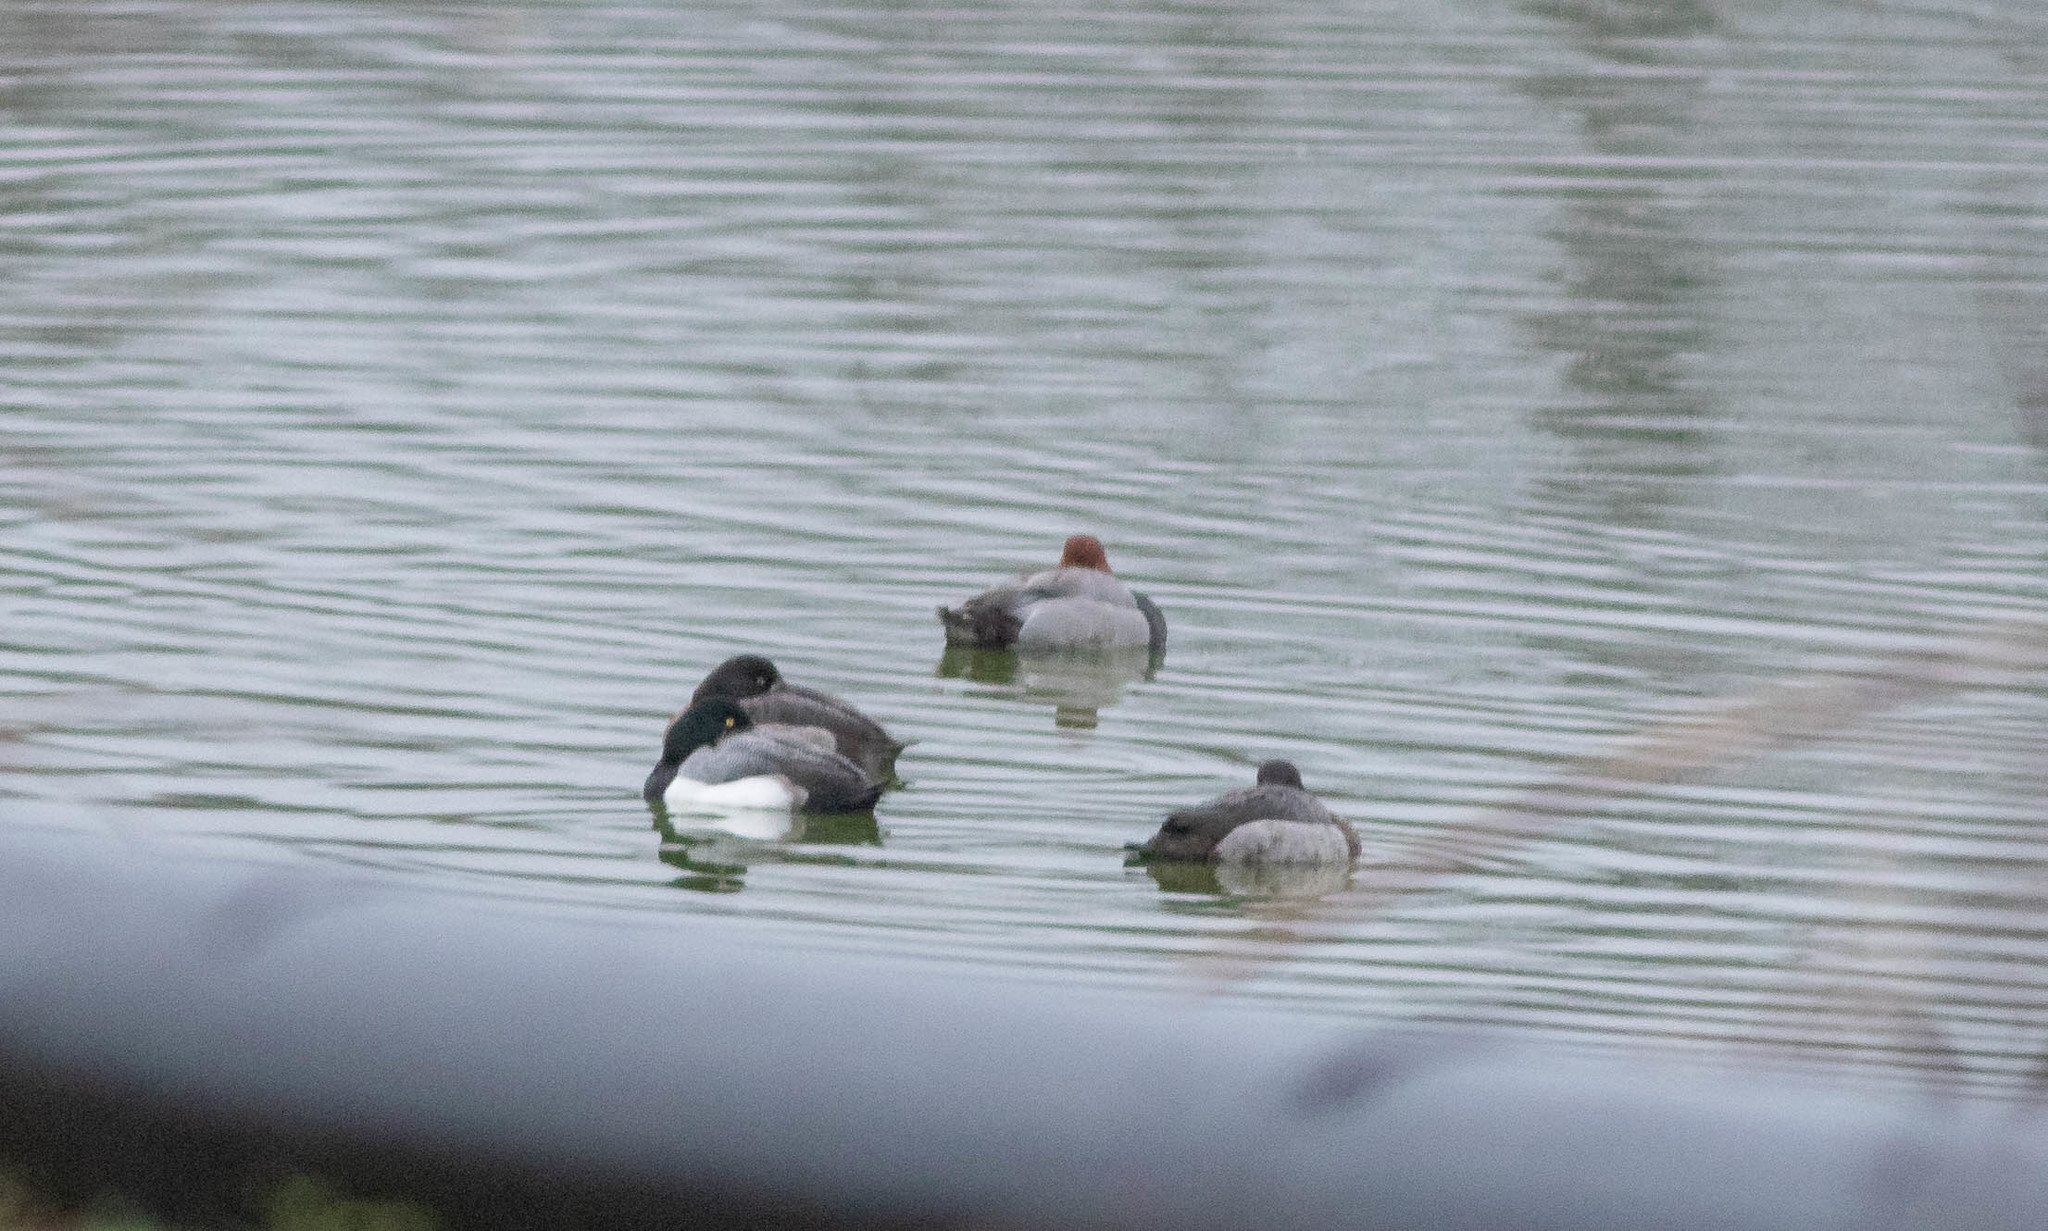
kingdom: Animalia
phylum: Chordata
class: Aves
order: Anseriformes
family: Anatidae
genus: Aythya
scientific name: Aythya americana
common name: Redhead
